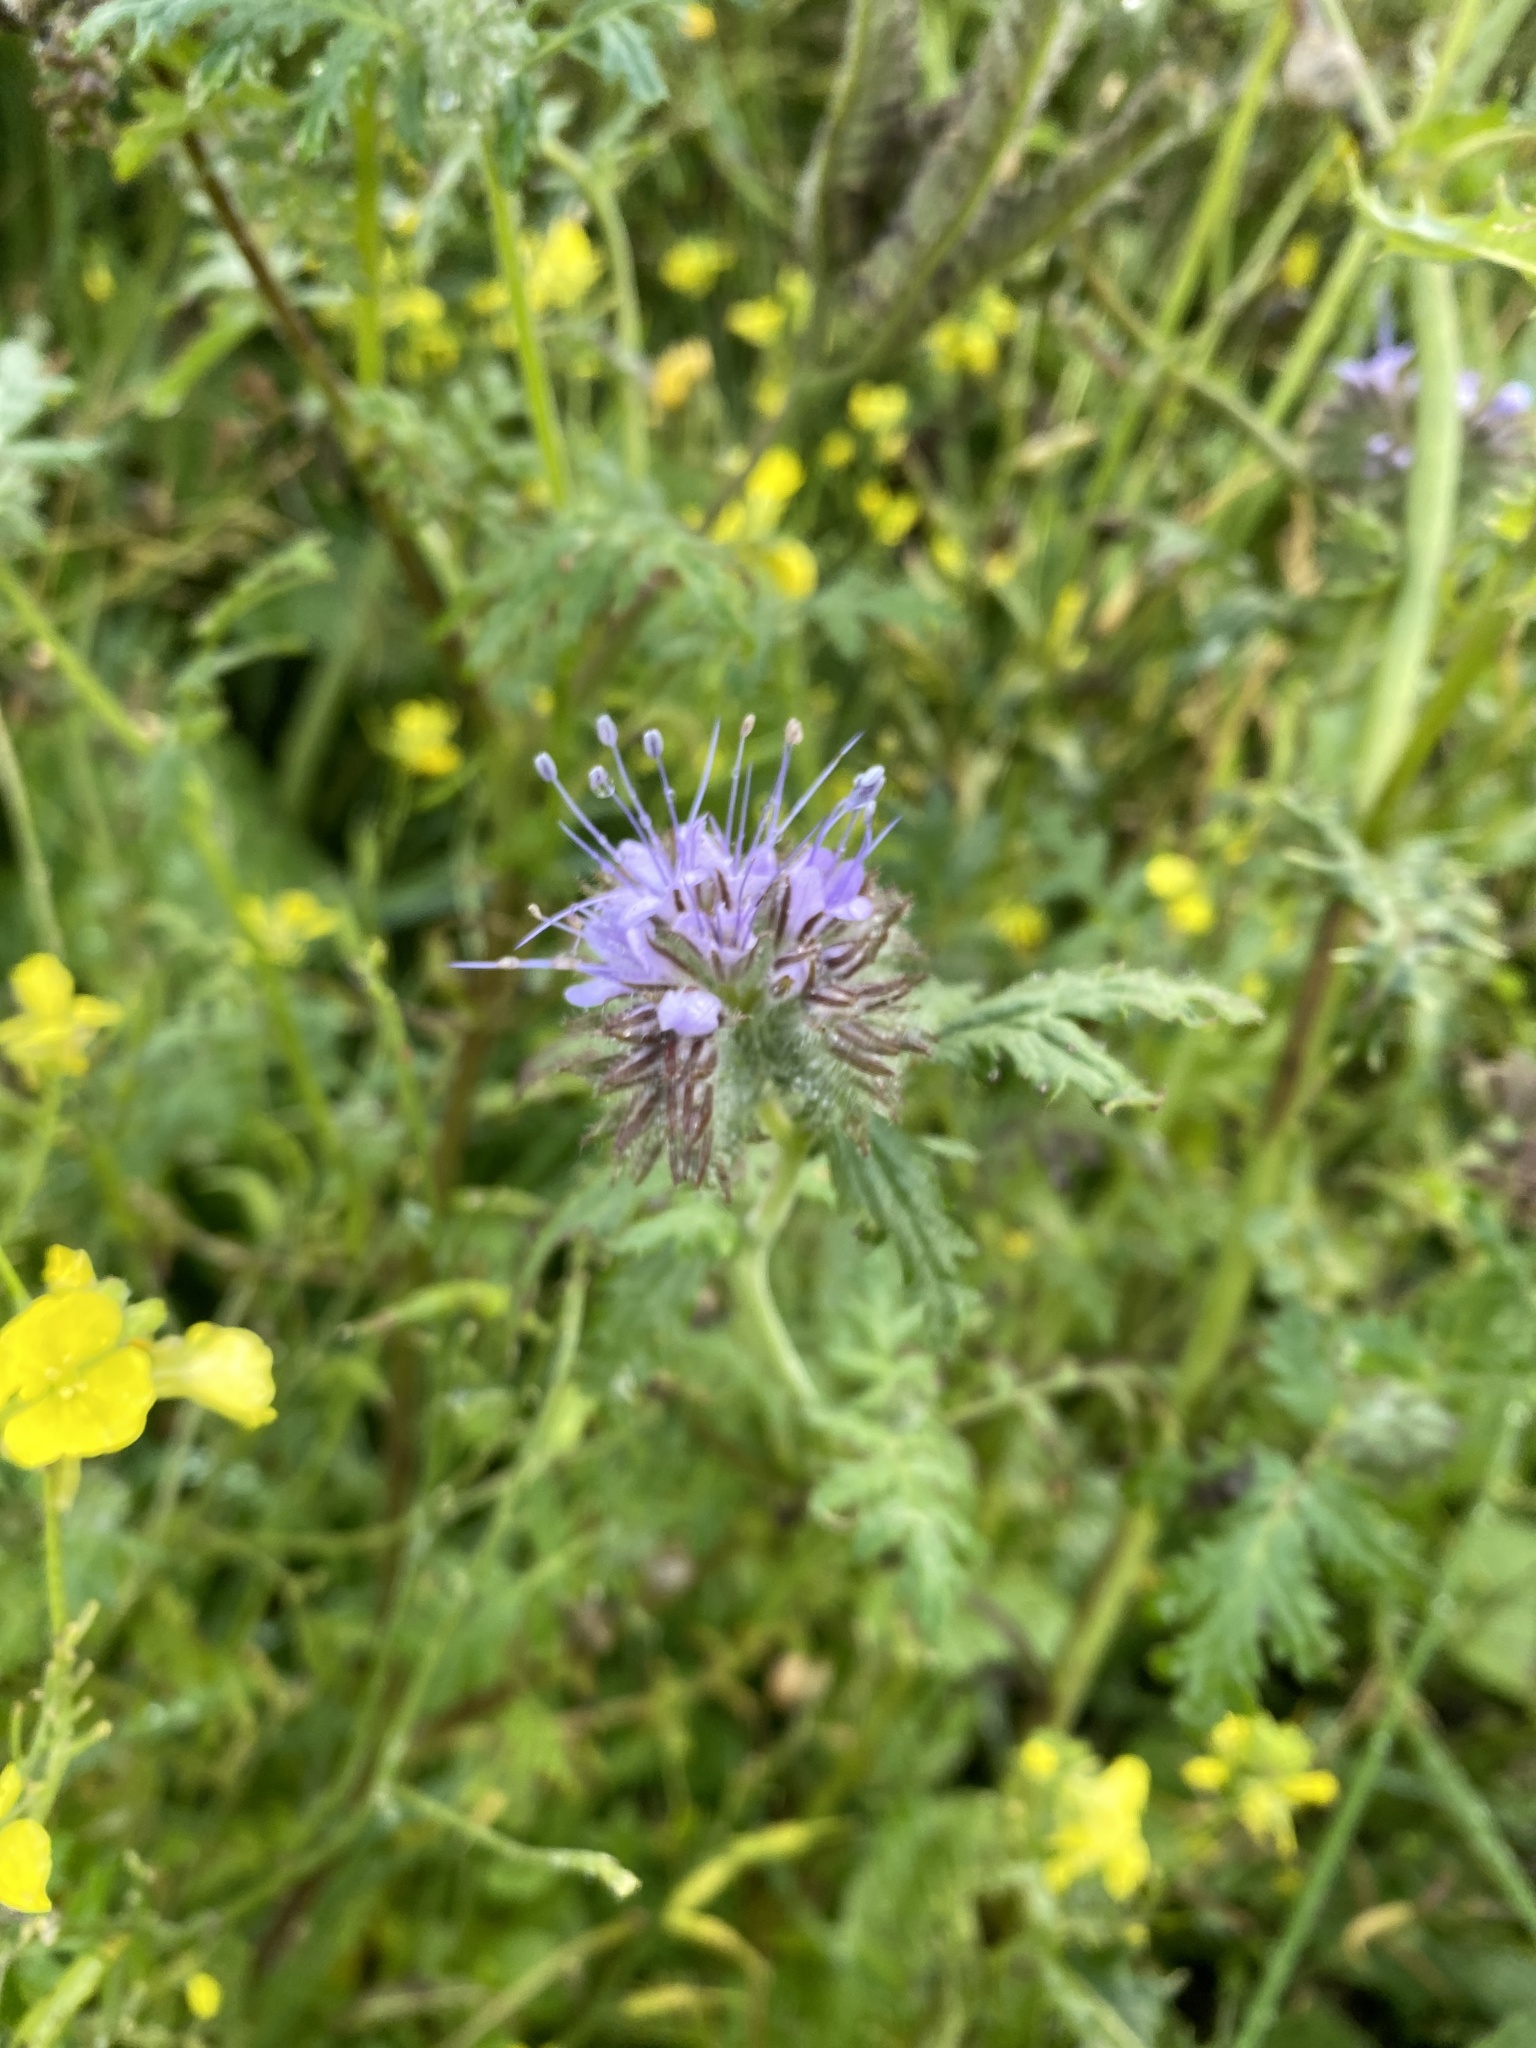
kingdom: Plantae
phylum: Tracheophyta
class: Magnoliopsida
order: Boraginales
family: Hydrophyllaceae
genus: Phacelia
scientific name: Phacelia tanacetifolia
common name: Phacelia
